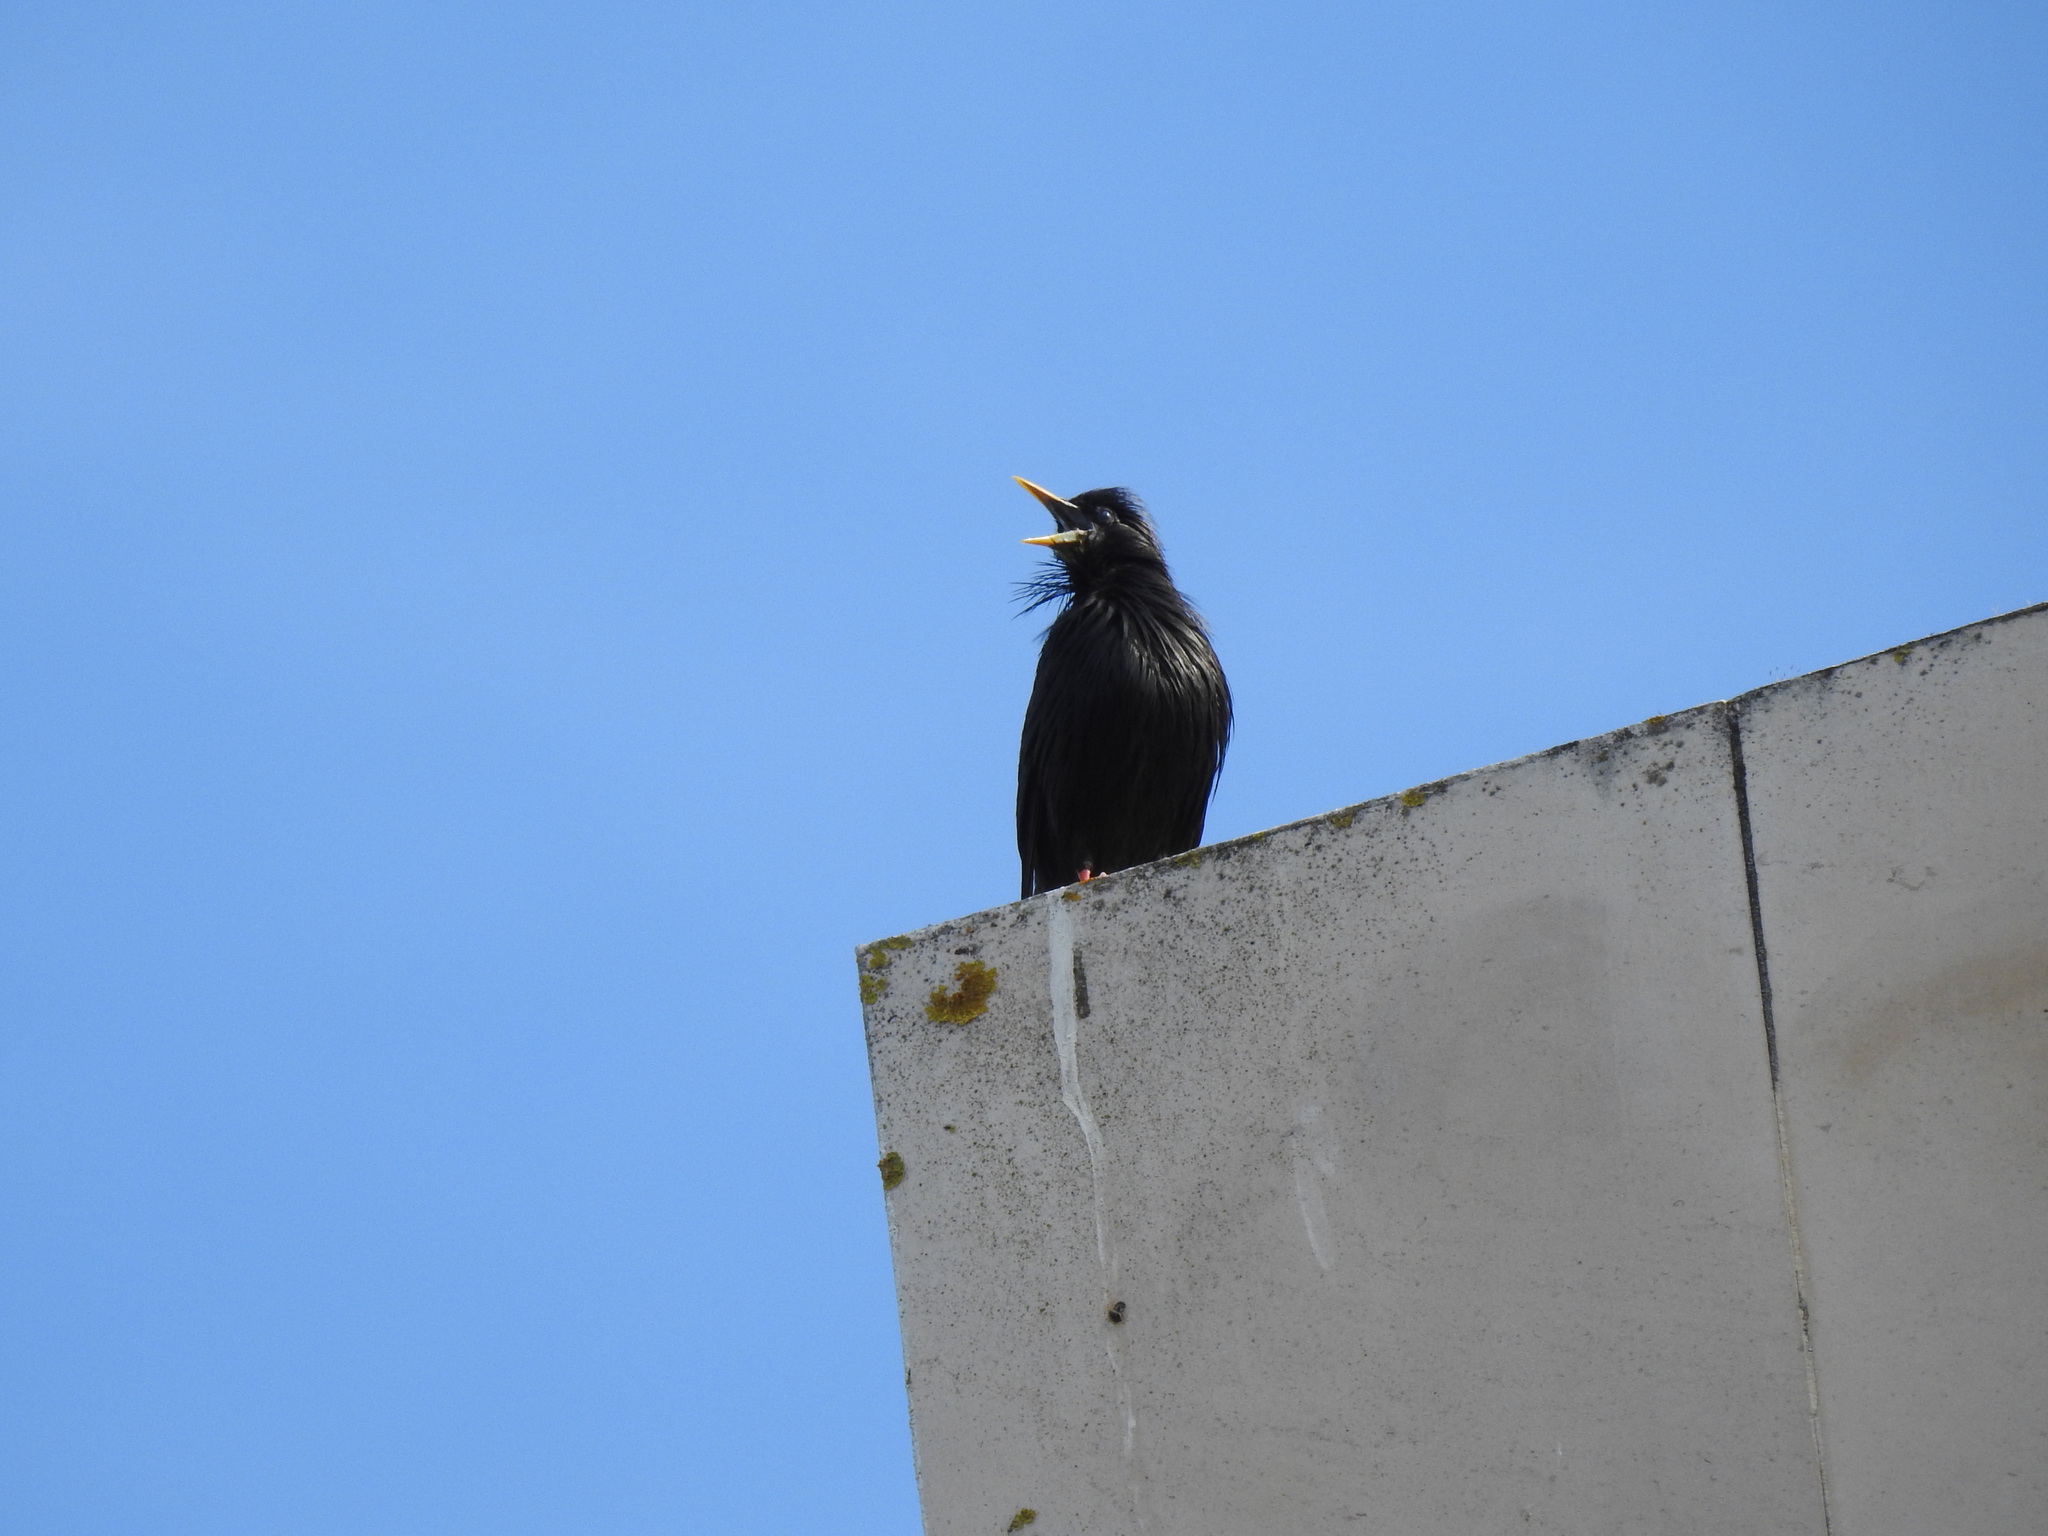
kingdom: Animalia
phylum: Chordata
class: Aves
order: Passeriformes
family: Sturnidae
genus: Sturnus
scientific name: Sturnus unicolor
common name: Spotless starling
